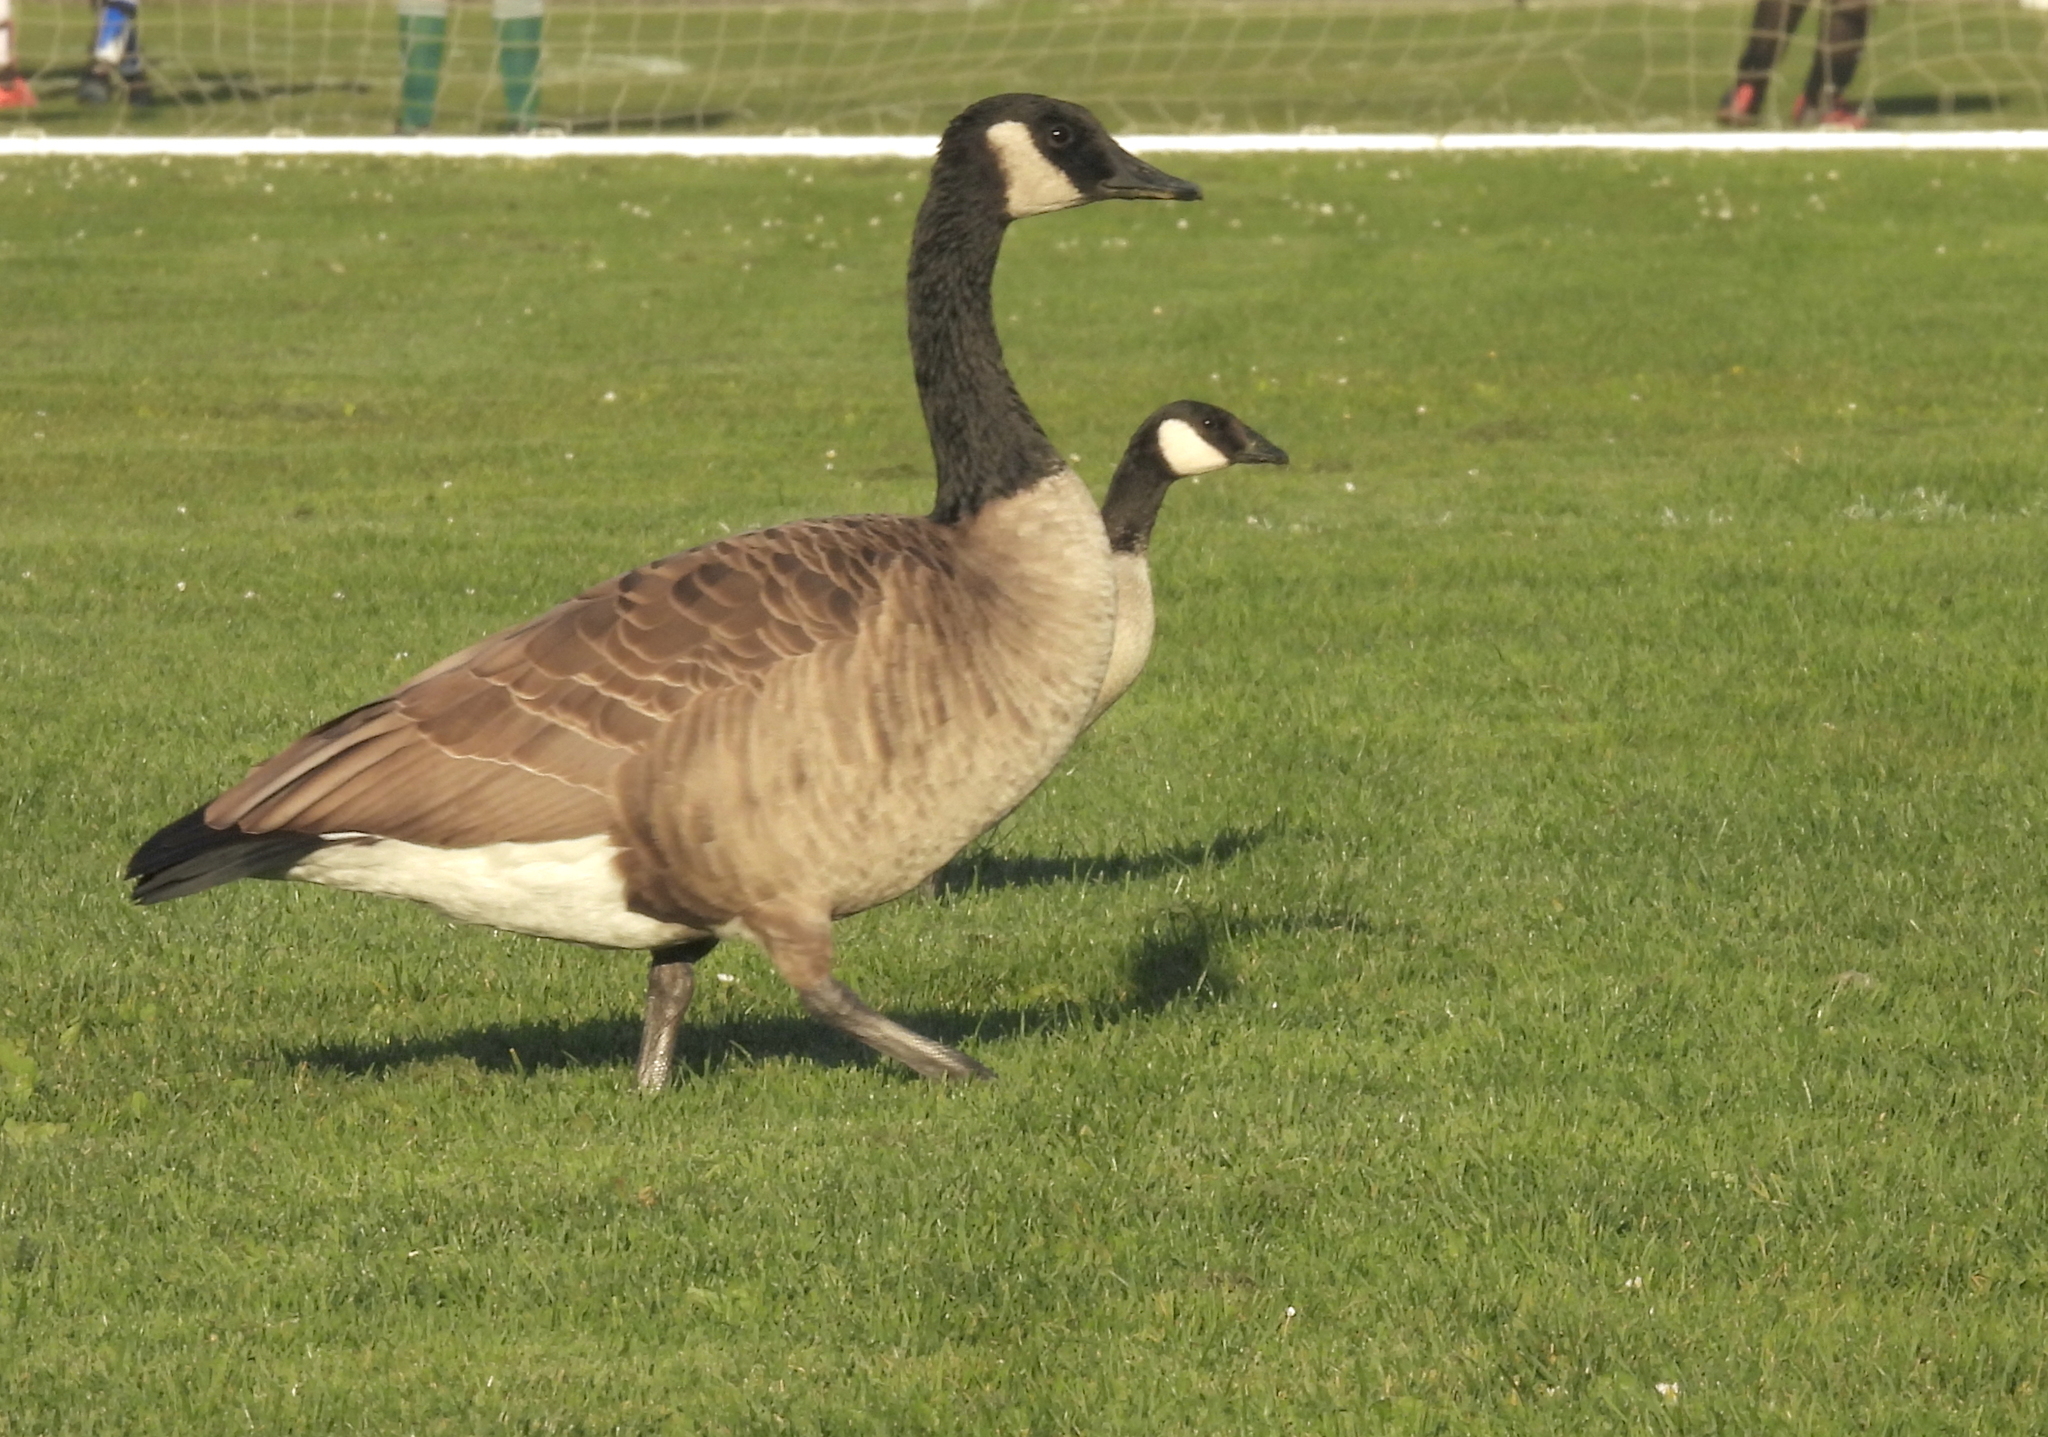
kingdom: Animalia
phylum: Chordata
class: Aves
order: Anseriformes
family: Anatidae
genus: Branta
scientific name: Branta canadensis
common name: Canada goose
